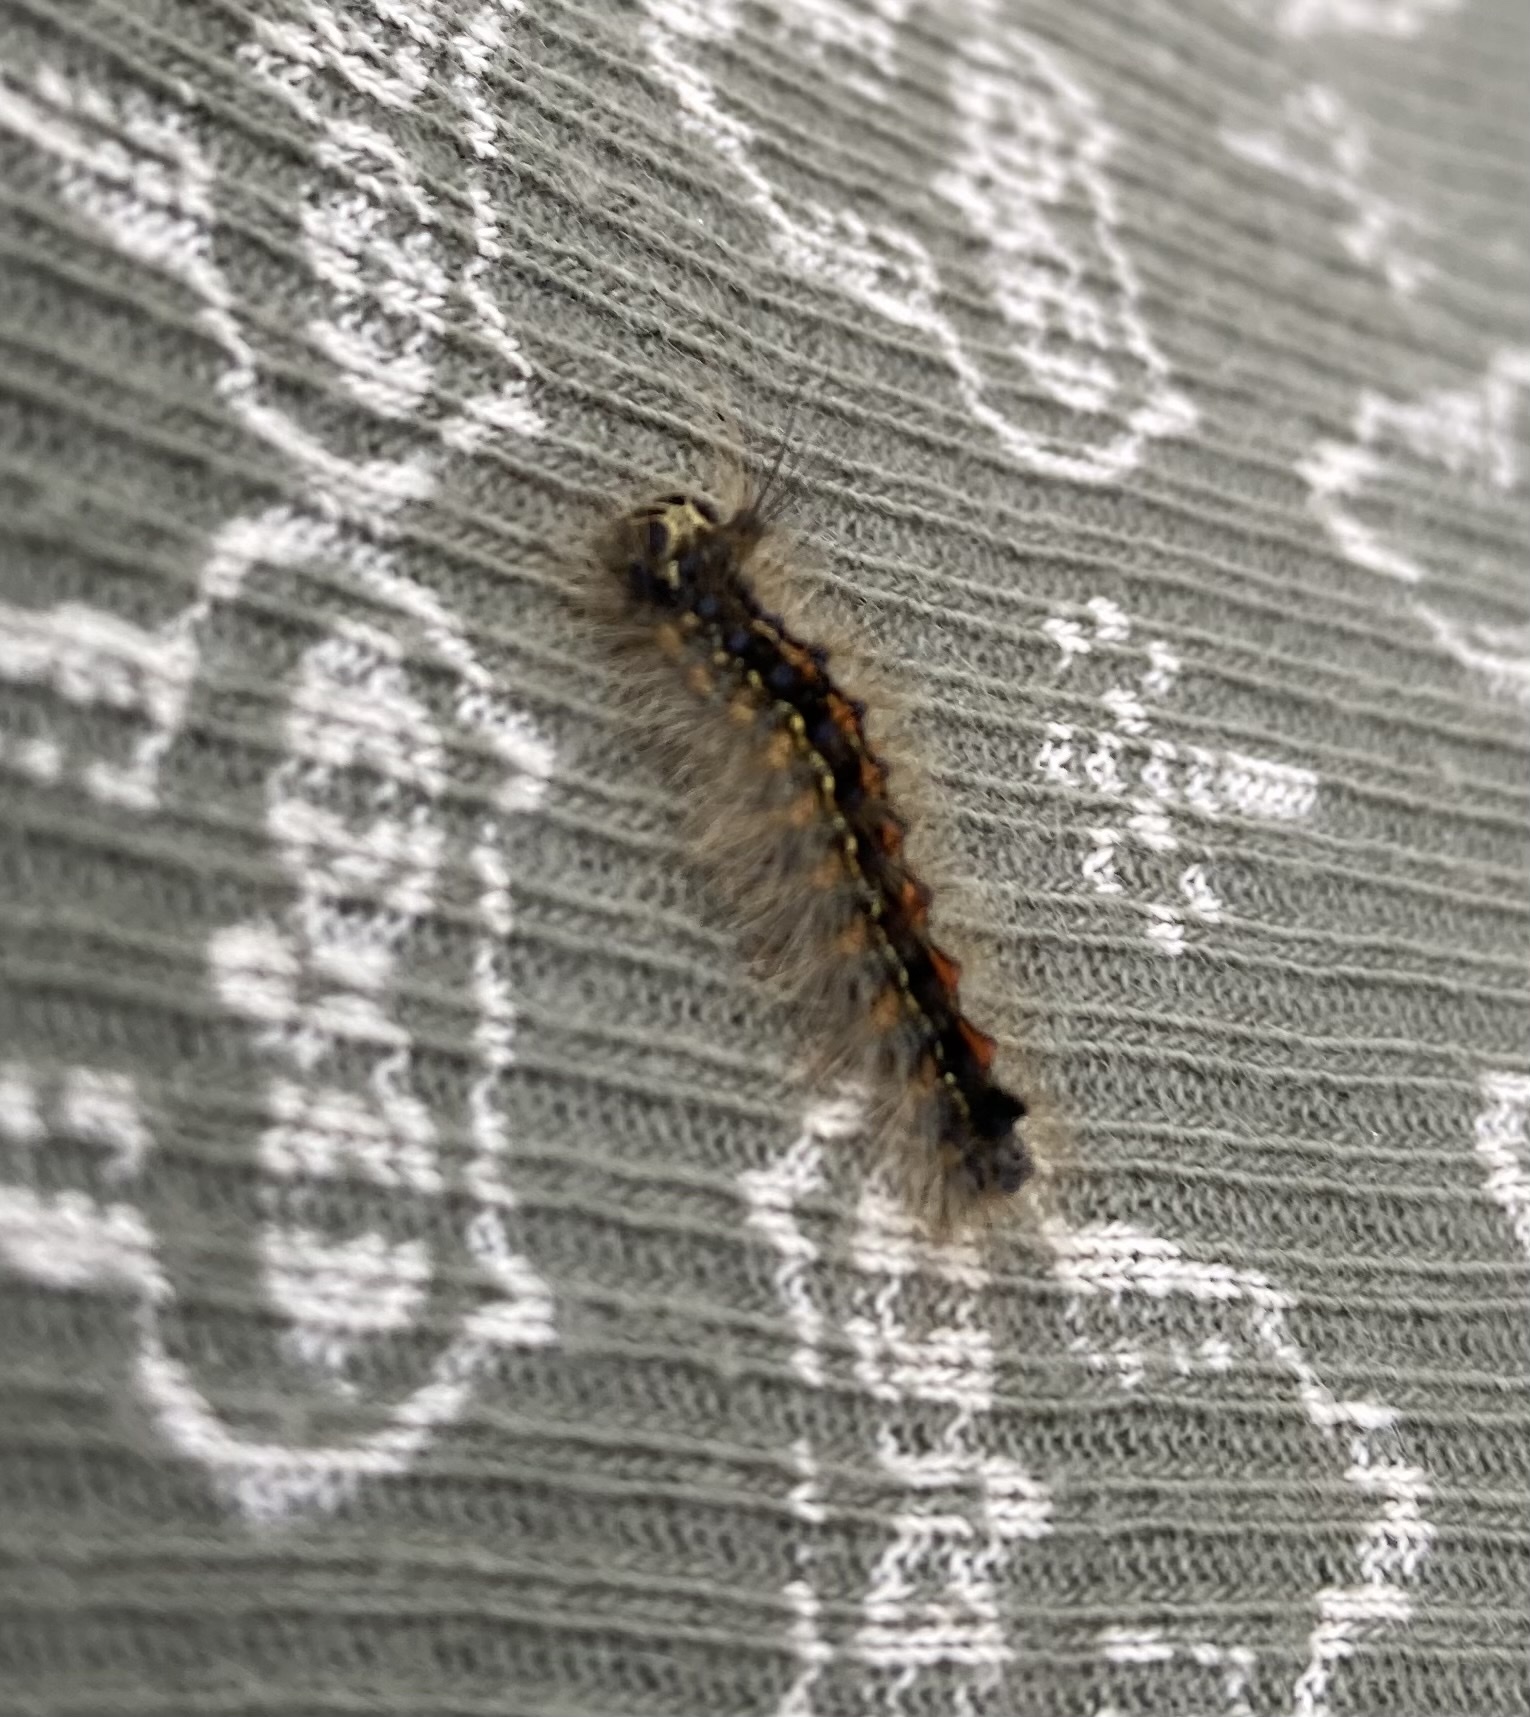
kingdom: Animalia
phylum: Arthropoda
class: Insecta
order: Lepidoptera
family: Erebidae
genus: Lymantria
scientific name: Lymantria dispar
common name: Gypsy moth
